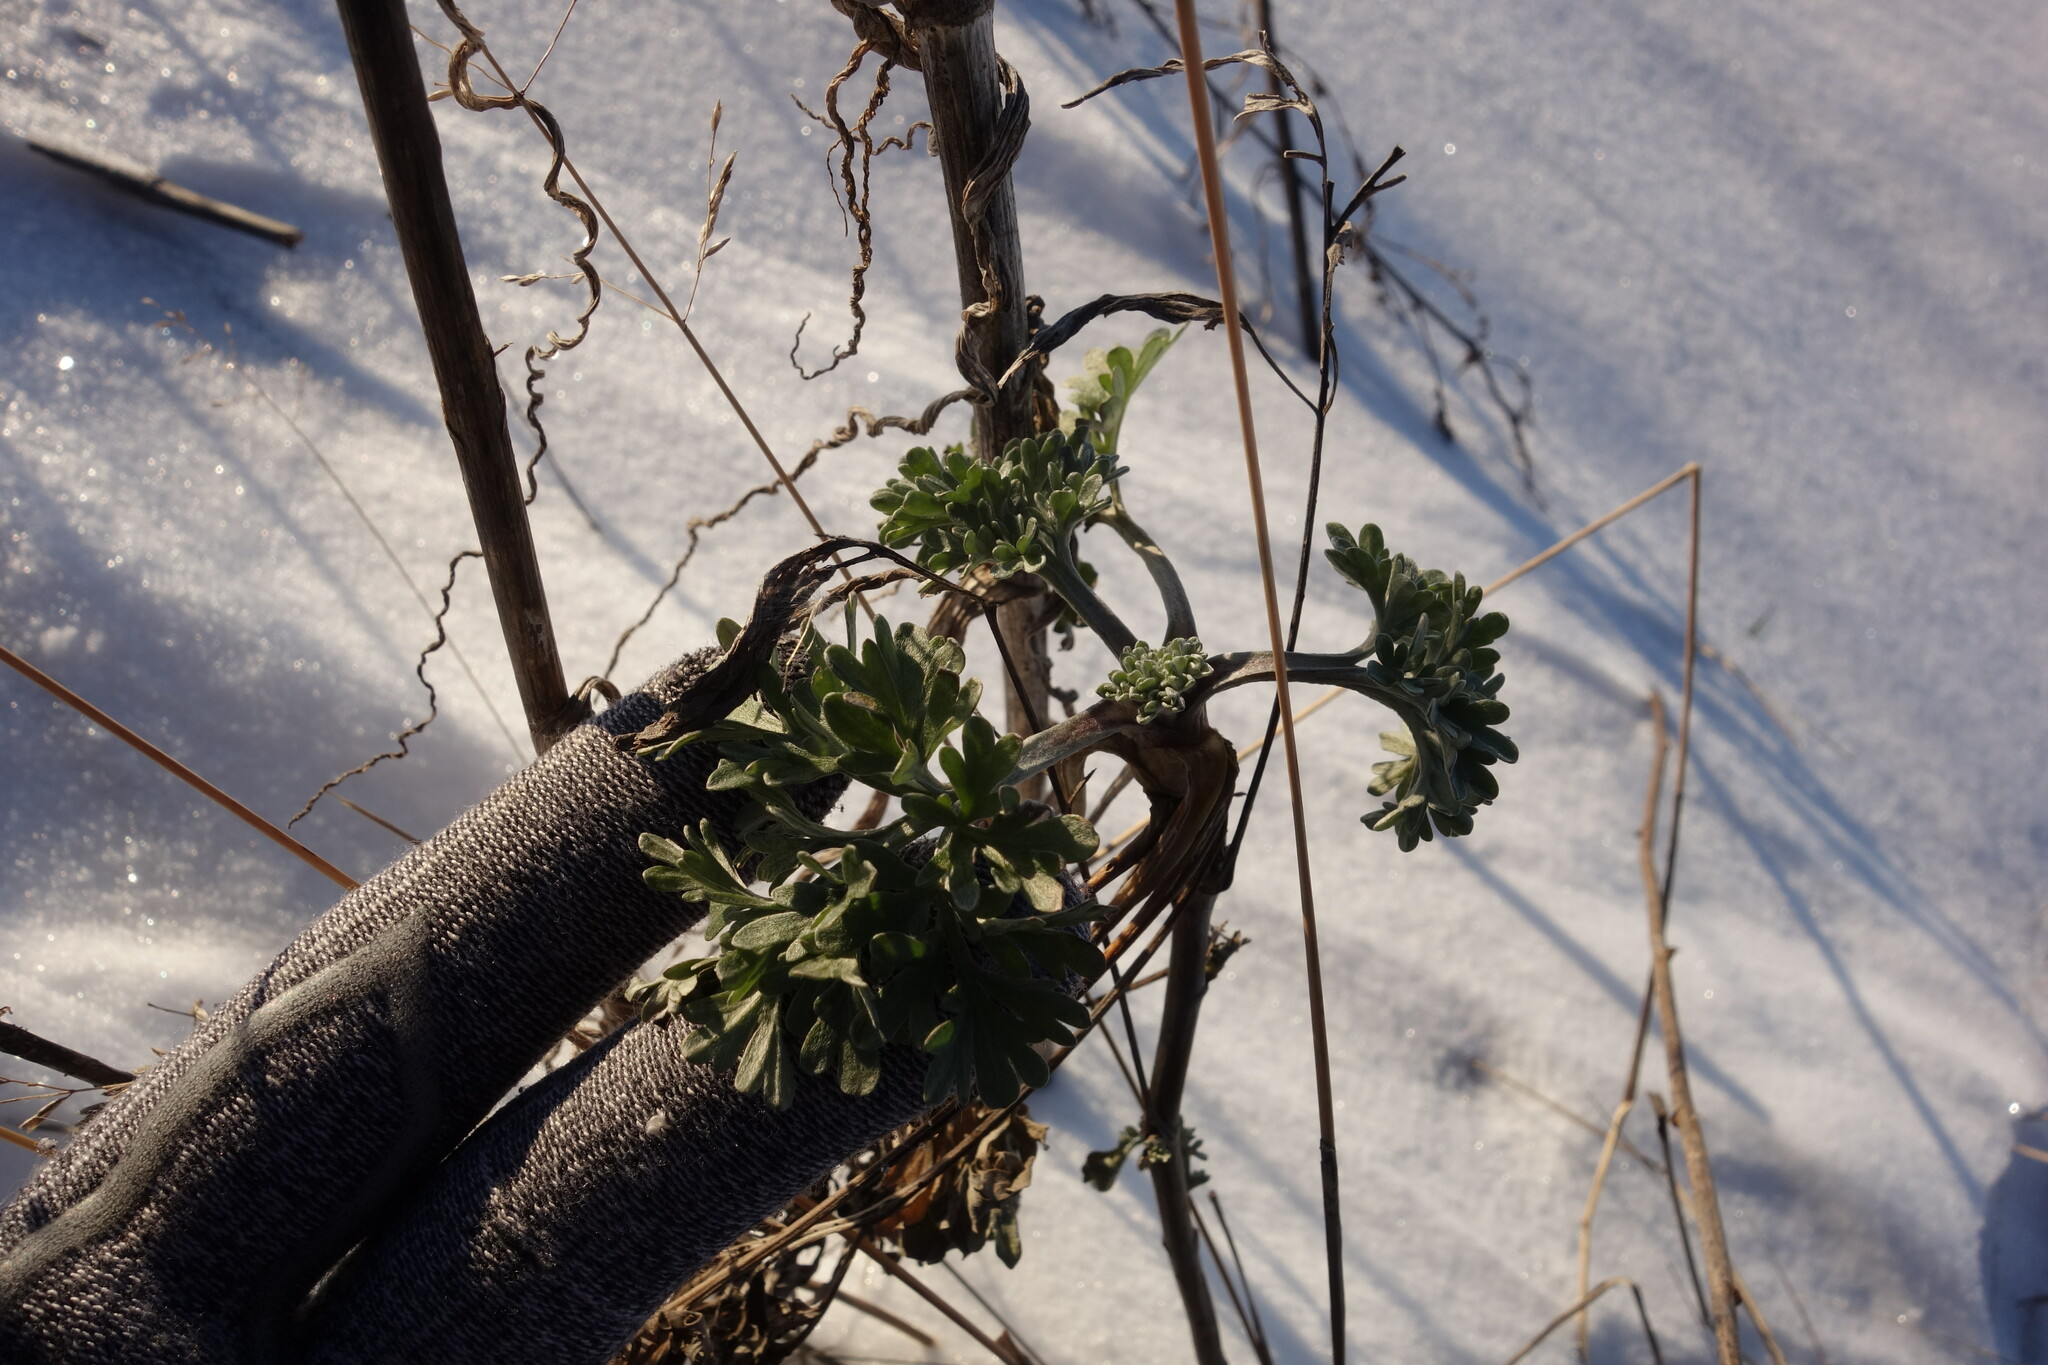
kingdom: Plantae
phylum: Tracheophyta
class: Magnoliopsida
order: Asterales
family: Asteraceae
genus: Artemisia
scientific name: Artemisia absinthium
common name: Wormwood
